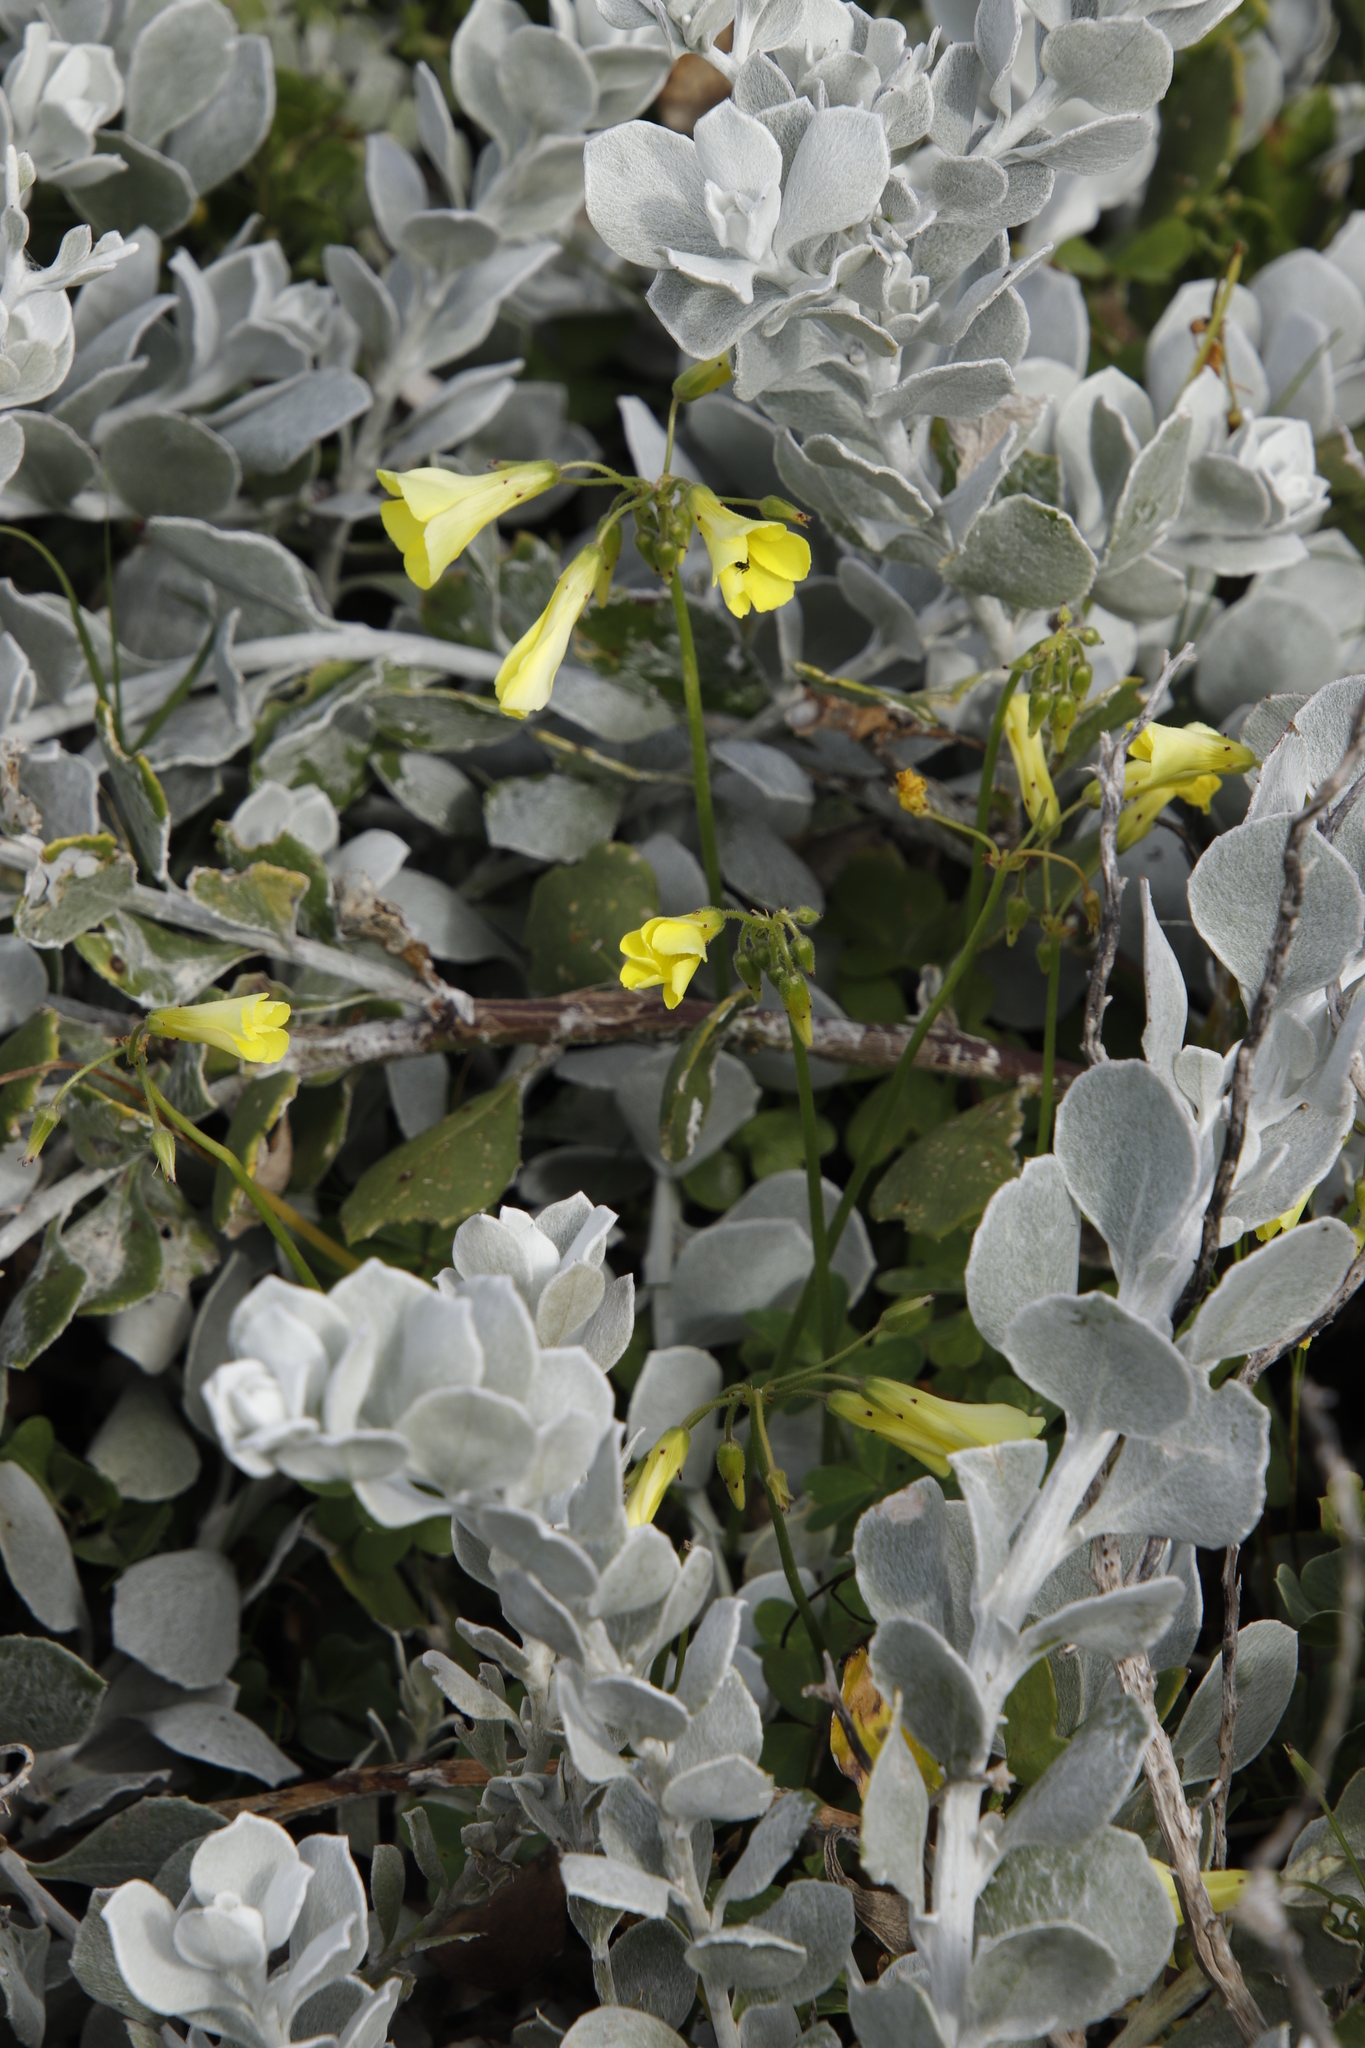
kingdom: Plantae
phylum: Tracheophyta
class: Magnoliopsida
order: Oxalidales
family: Oxalidaceae
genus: Oxalis
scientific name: Oxalis pes-caprae
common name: Bermuda-buttercup
